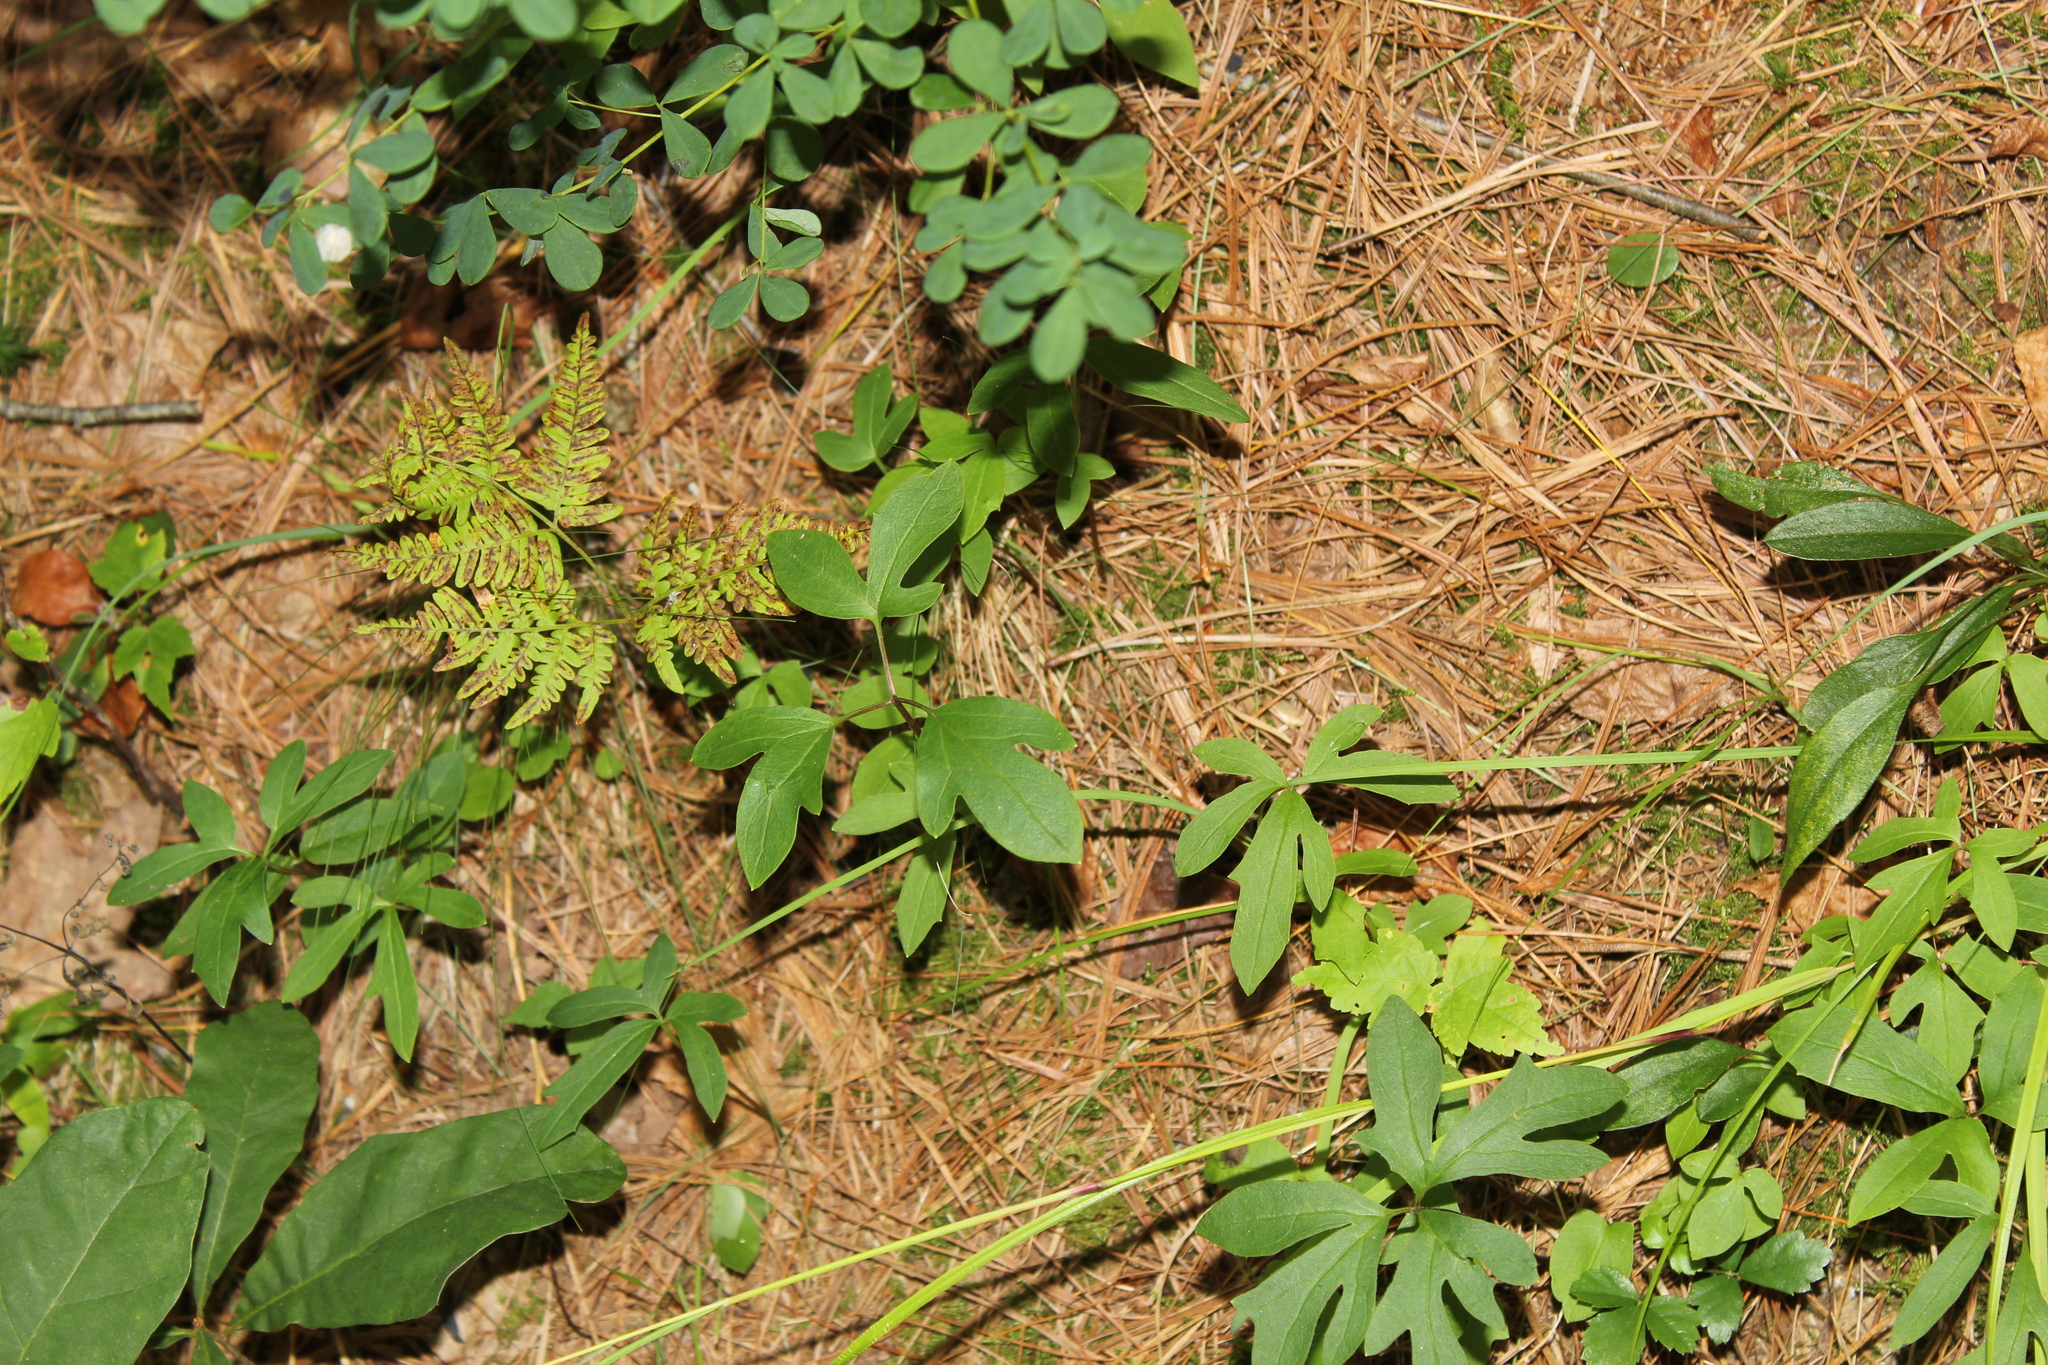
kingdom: Plantae
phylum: Tracheophyta
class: Magnoliopsida
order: Laurales
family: Lauraceae
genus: Sassafras
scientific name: Sassafras albidum
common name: Sassafras
